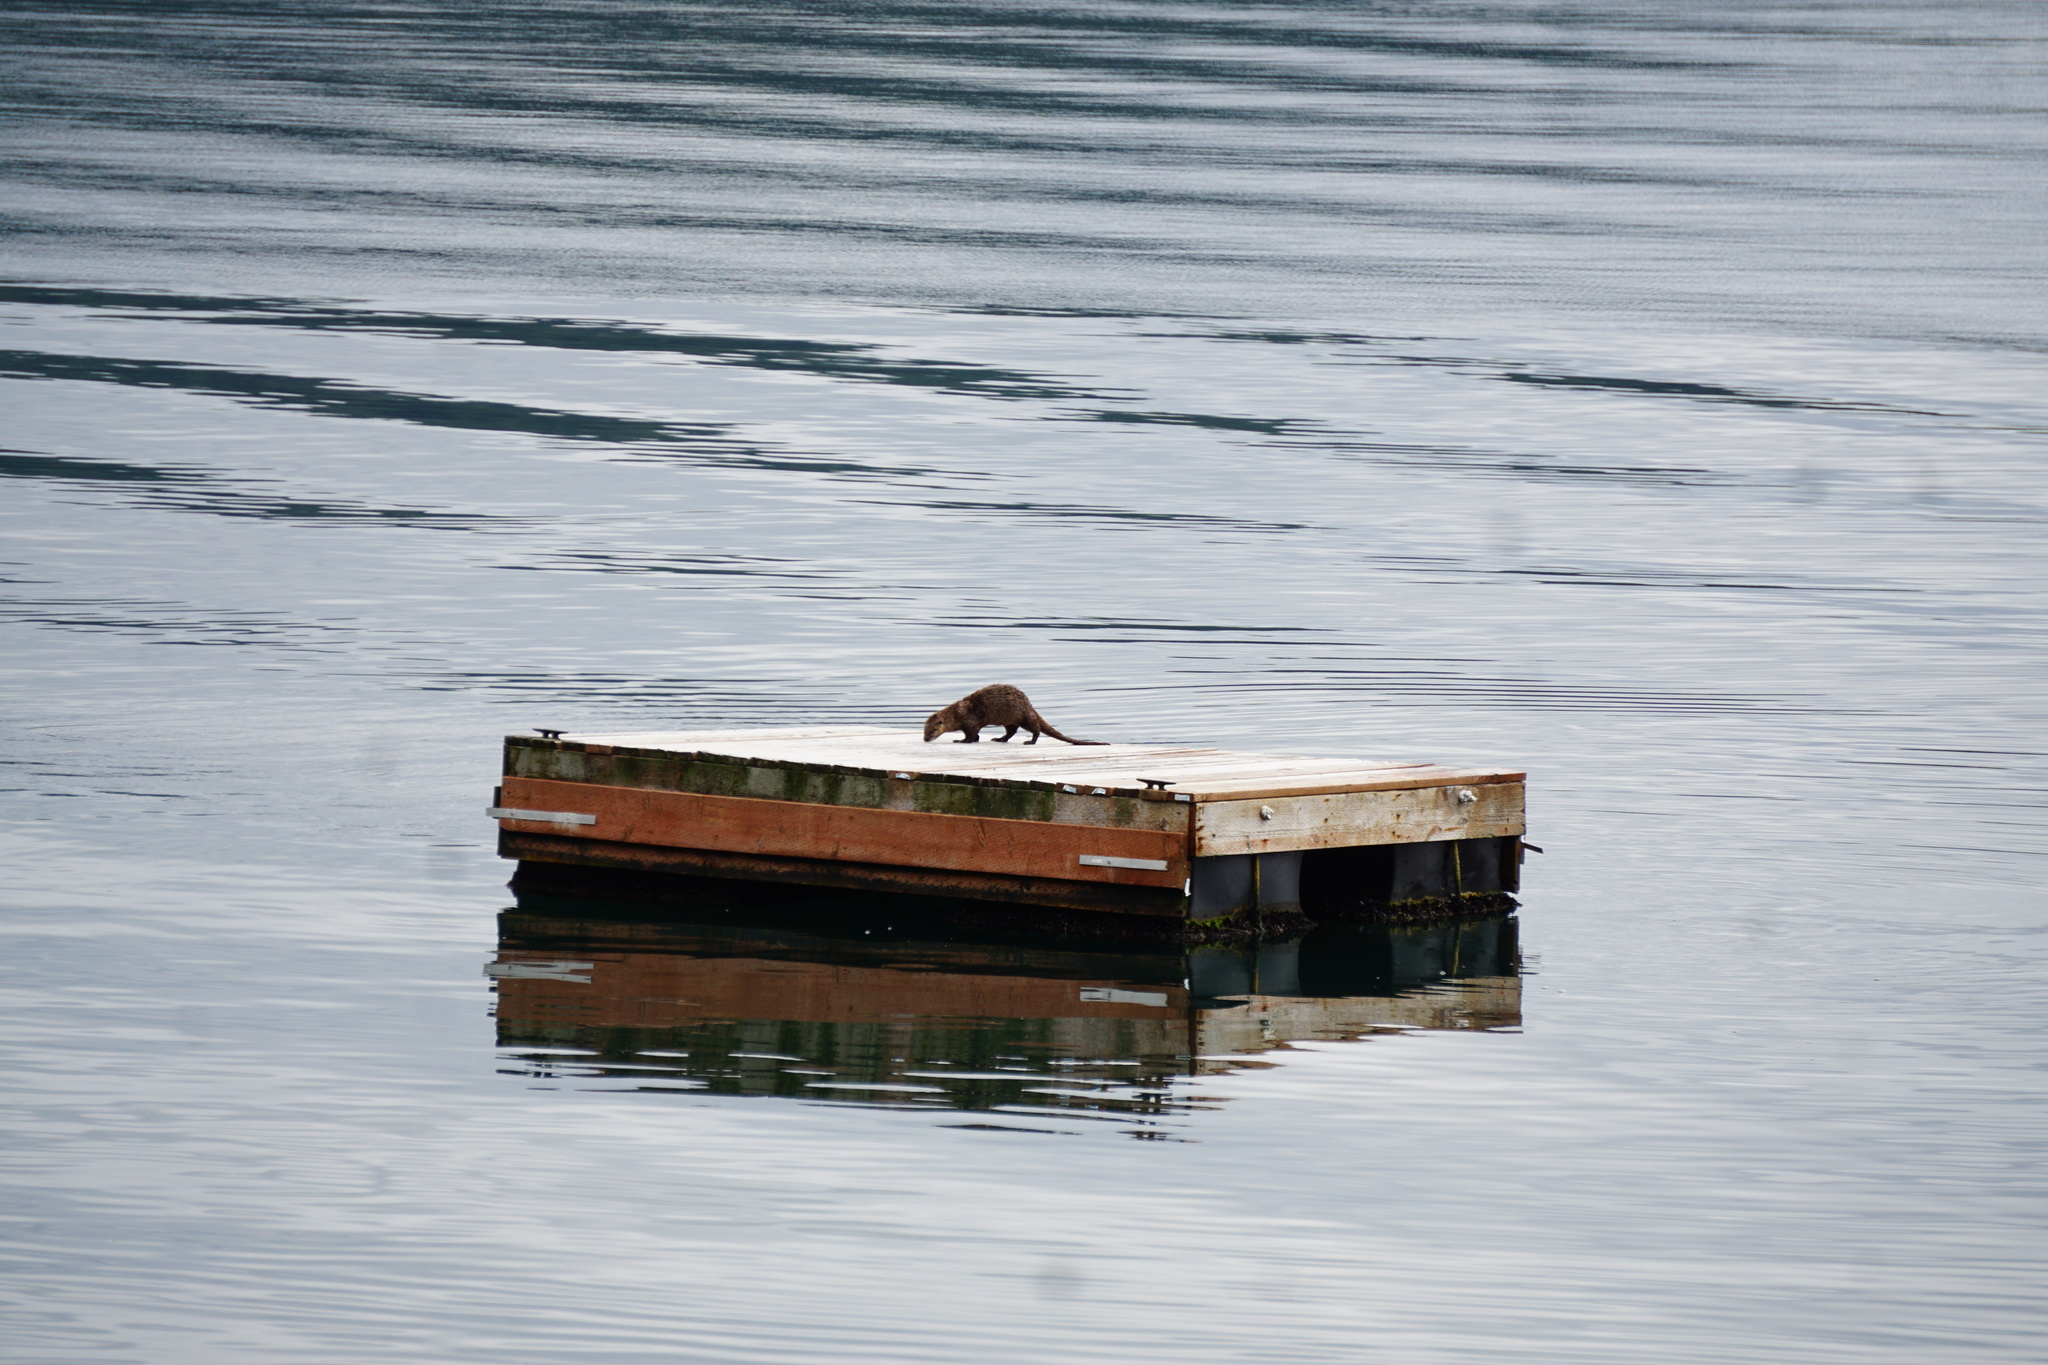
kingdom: Animalia
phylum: Chordata
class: Mammalia
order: Carnivora
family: Mustelidae
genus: Lontra
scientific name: Lontra canadensis
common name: North american river otter
